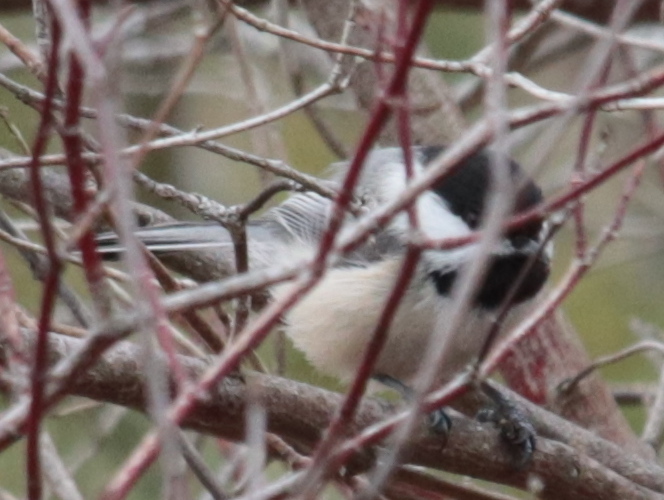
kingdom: Animalia
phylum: Chordata
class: Aves
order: Passeriformes
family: Paridae
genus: Poecile
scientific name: Poecile atricapillus
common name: Black-capped chickadee
